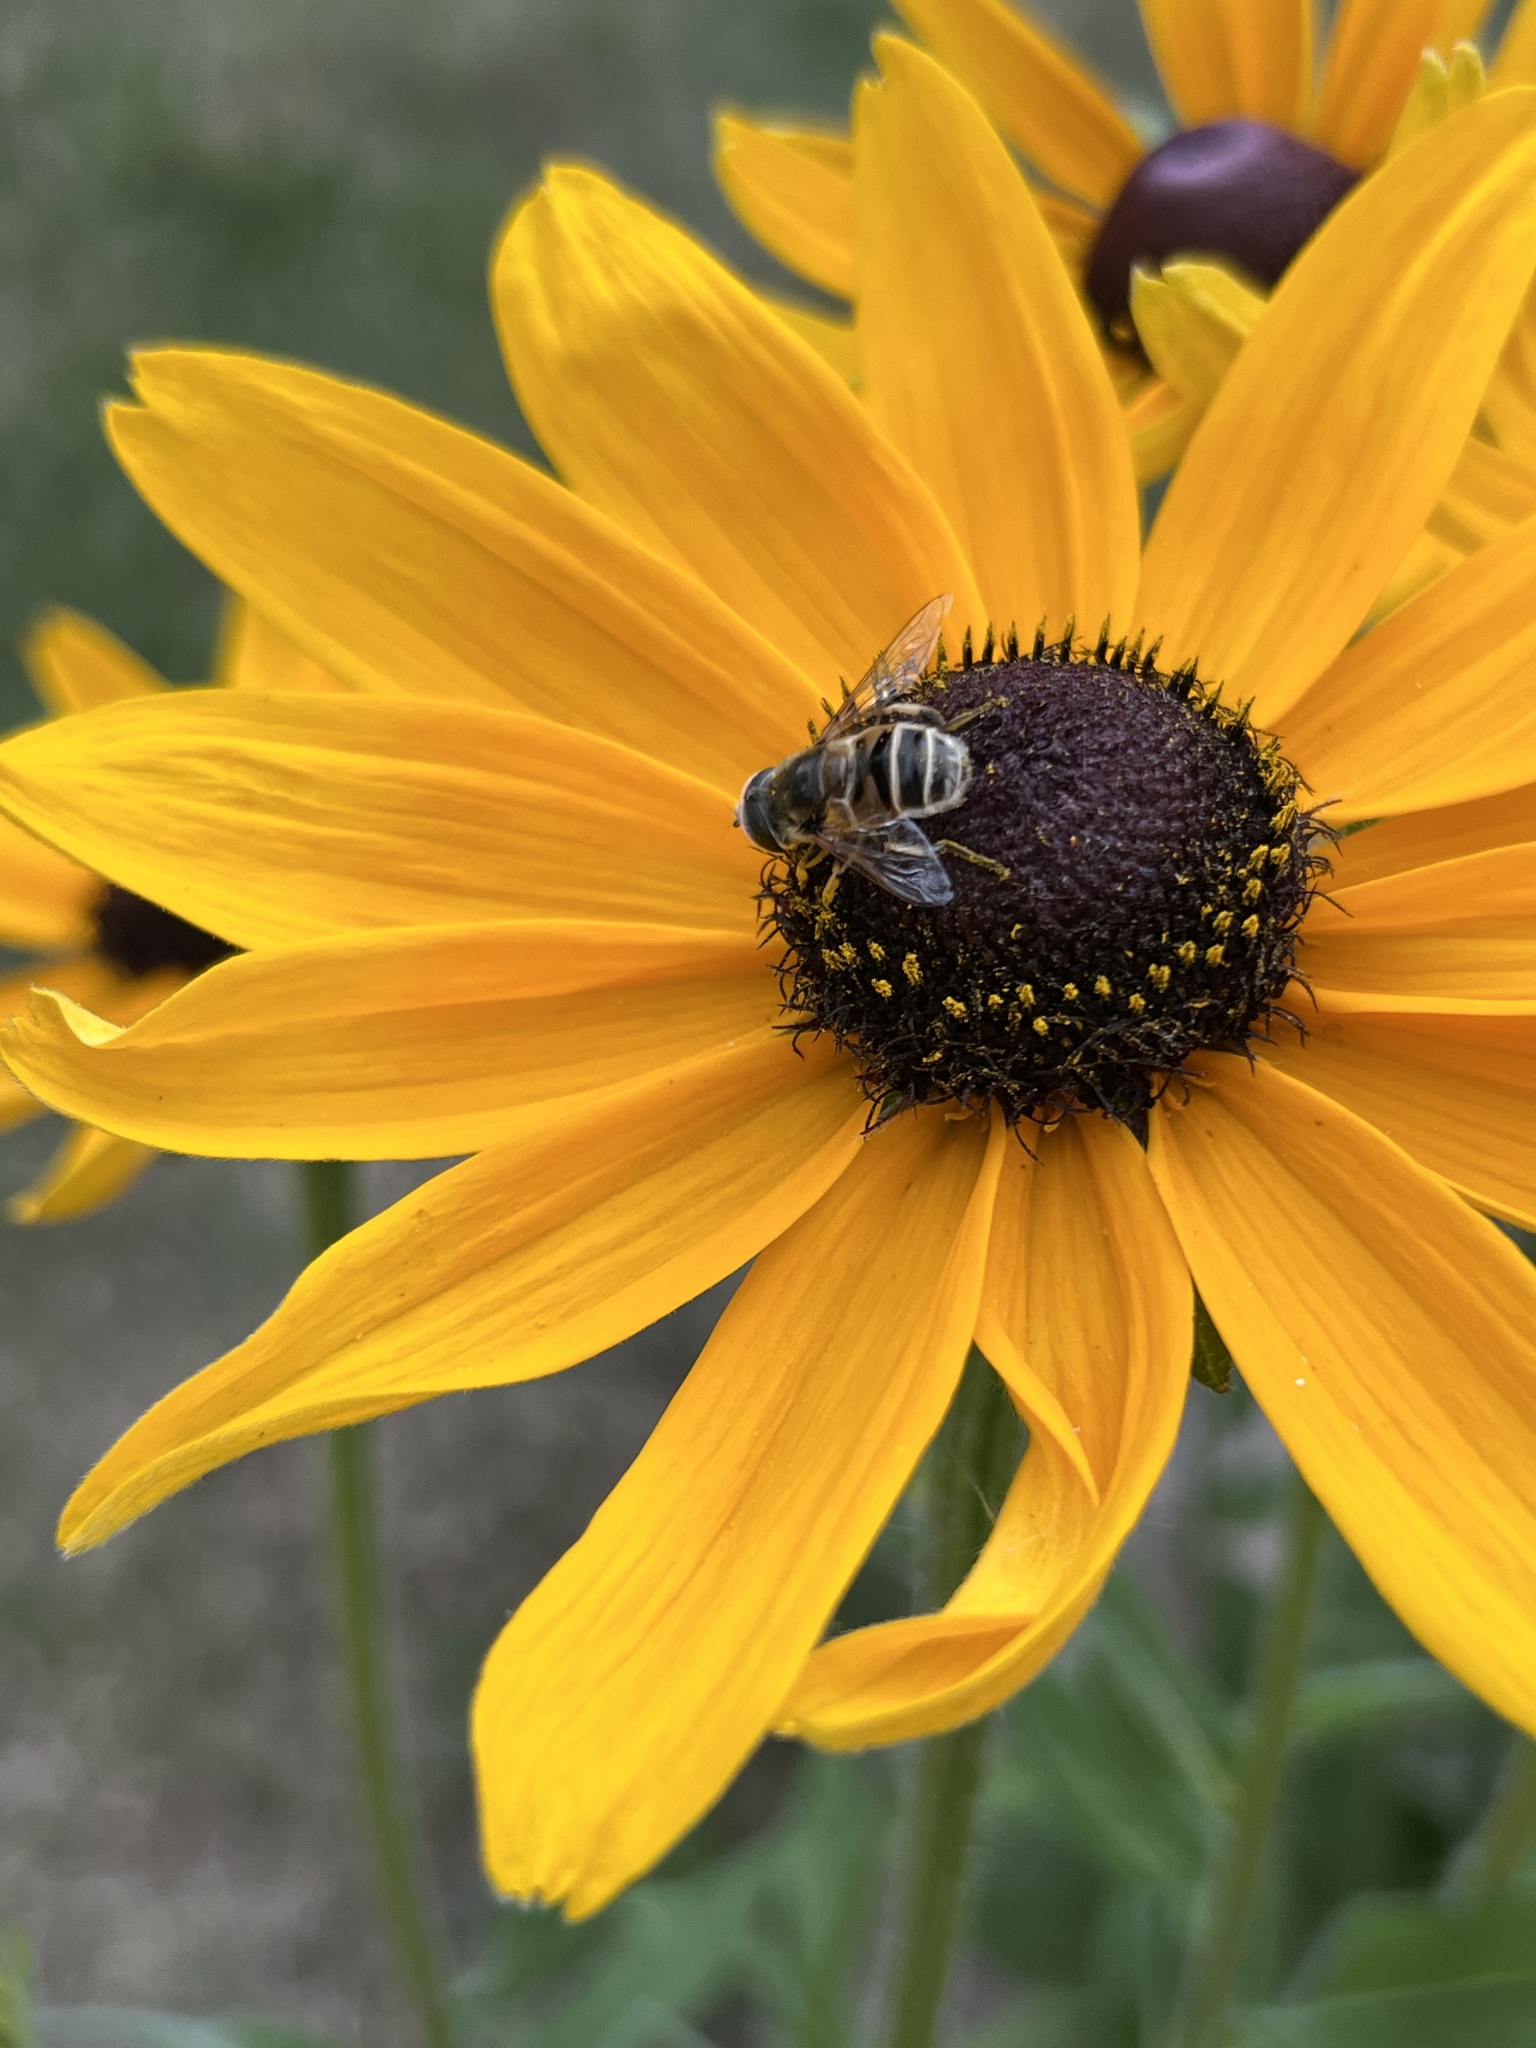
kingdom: Animalia
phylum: Arthropoda
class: Insecta
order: Diptera
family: Syrphidae
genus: Eristalis
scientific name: Eristalis stipator
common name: Yellow-shouldered drone fly
